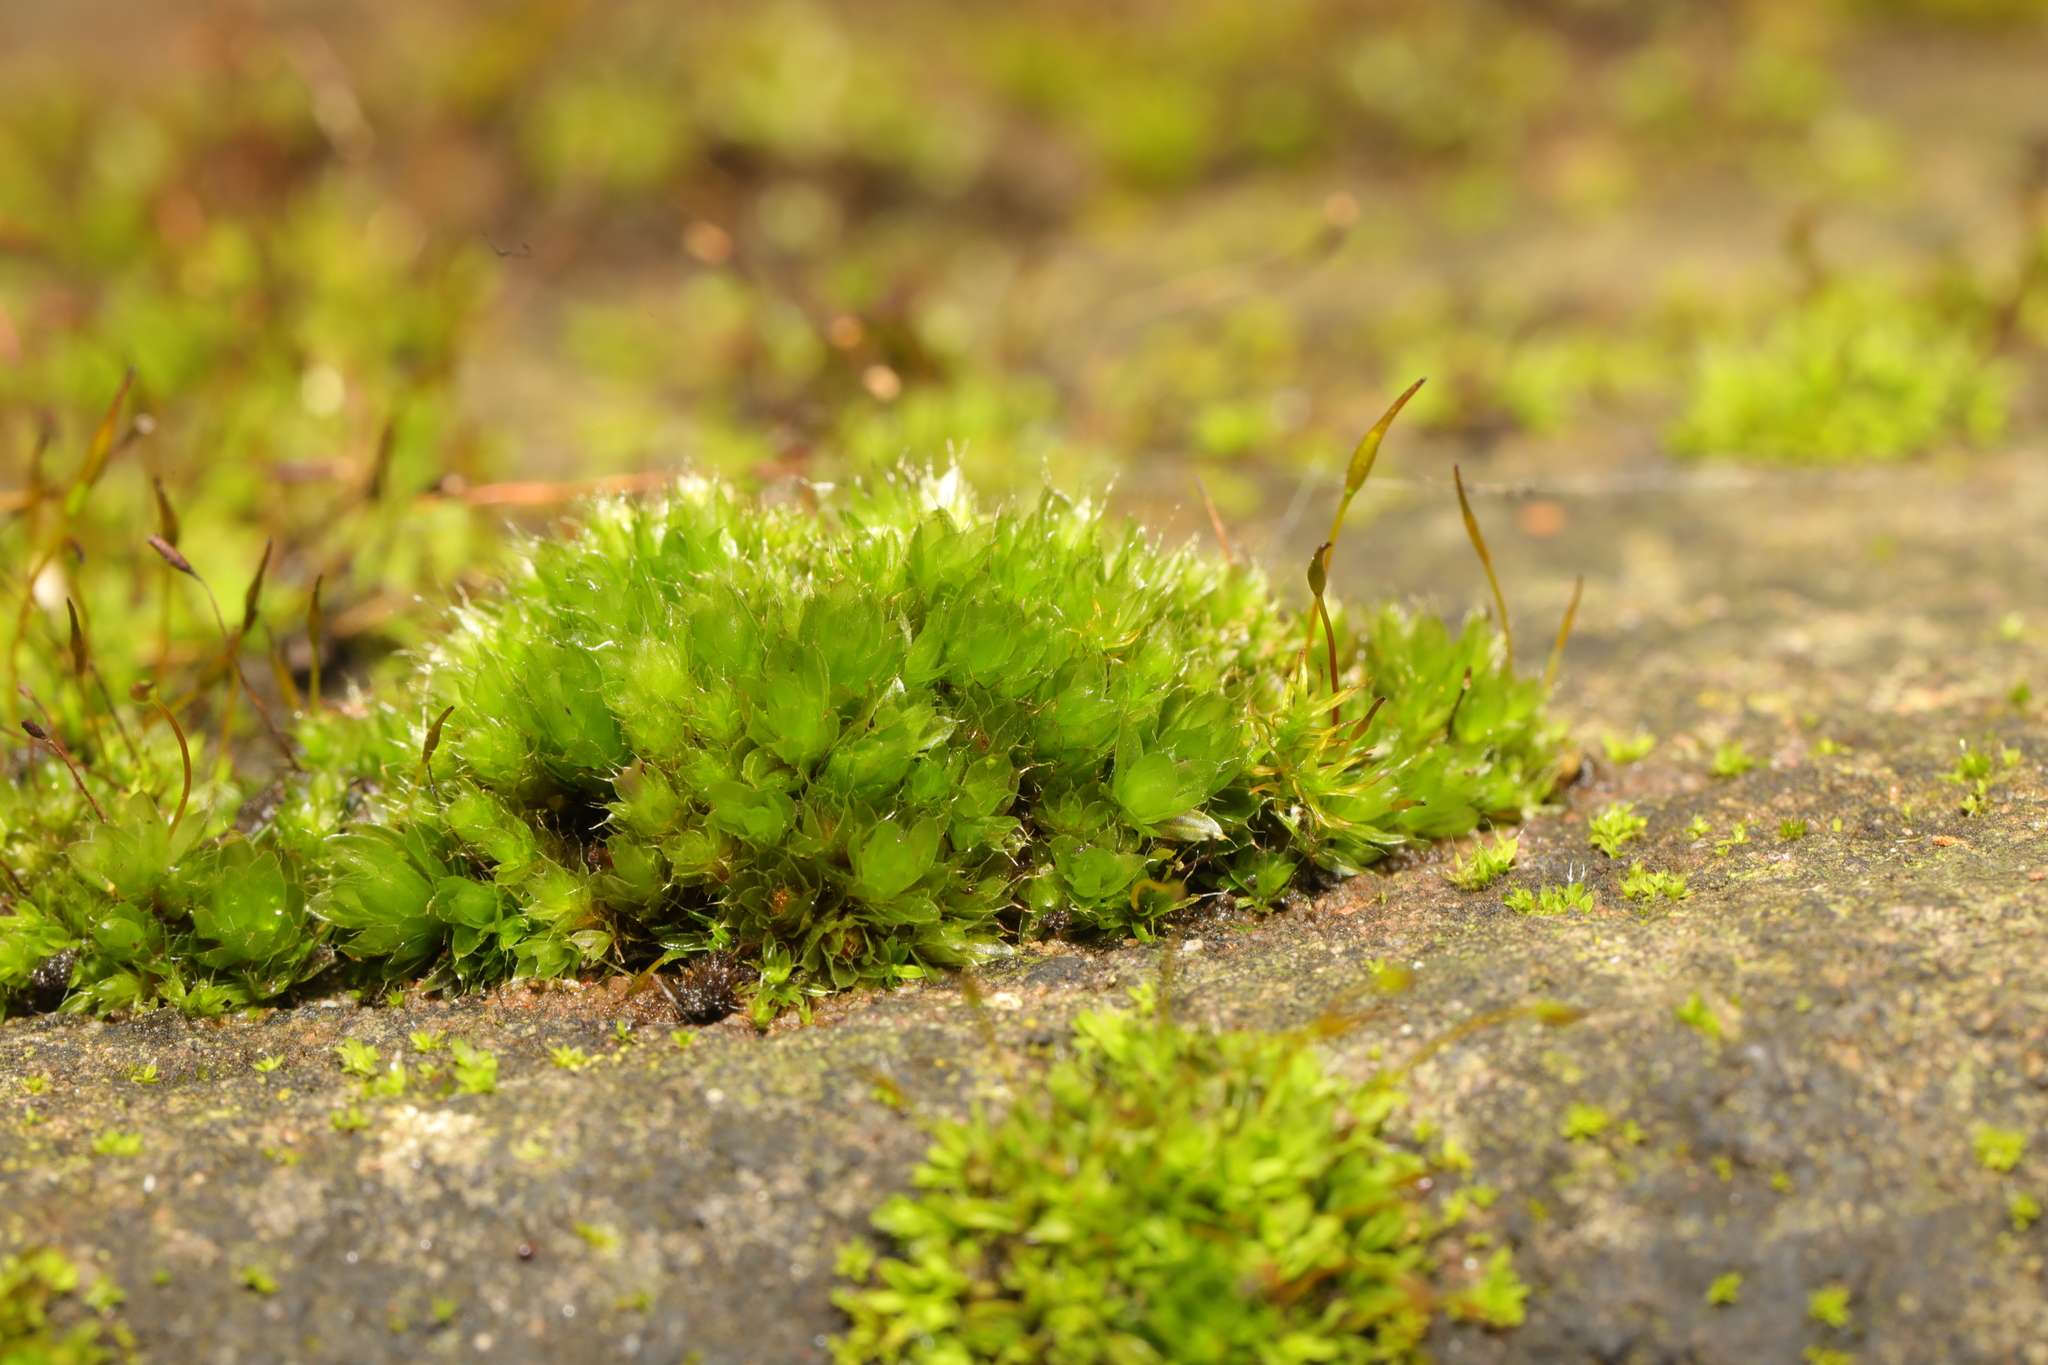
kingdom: Plantae
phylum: Bryophyta
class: Bryopsida
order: Bryales
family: Bryaceae
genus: Rosulabryum
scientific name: Rosulabryum capillare
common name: Capillary thread-moss
